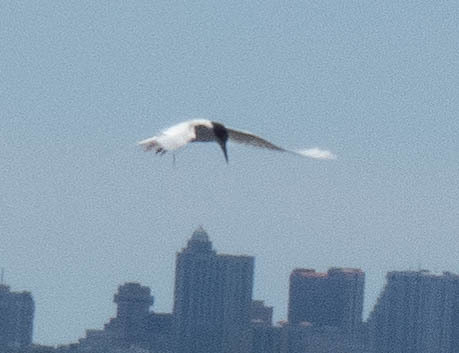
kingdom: Animalia
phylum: Chordata
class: Aves
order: Charadriiformes
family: Laridae
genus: Sterna
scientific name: Sterna forsteri
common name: Forster's tern
